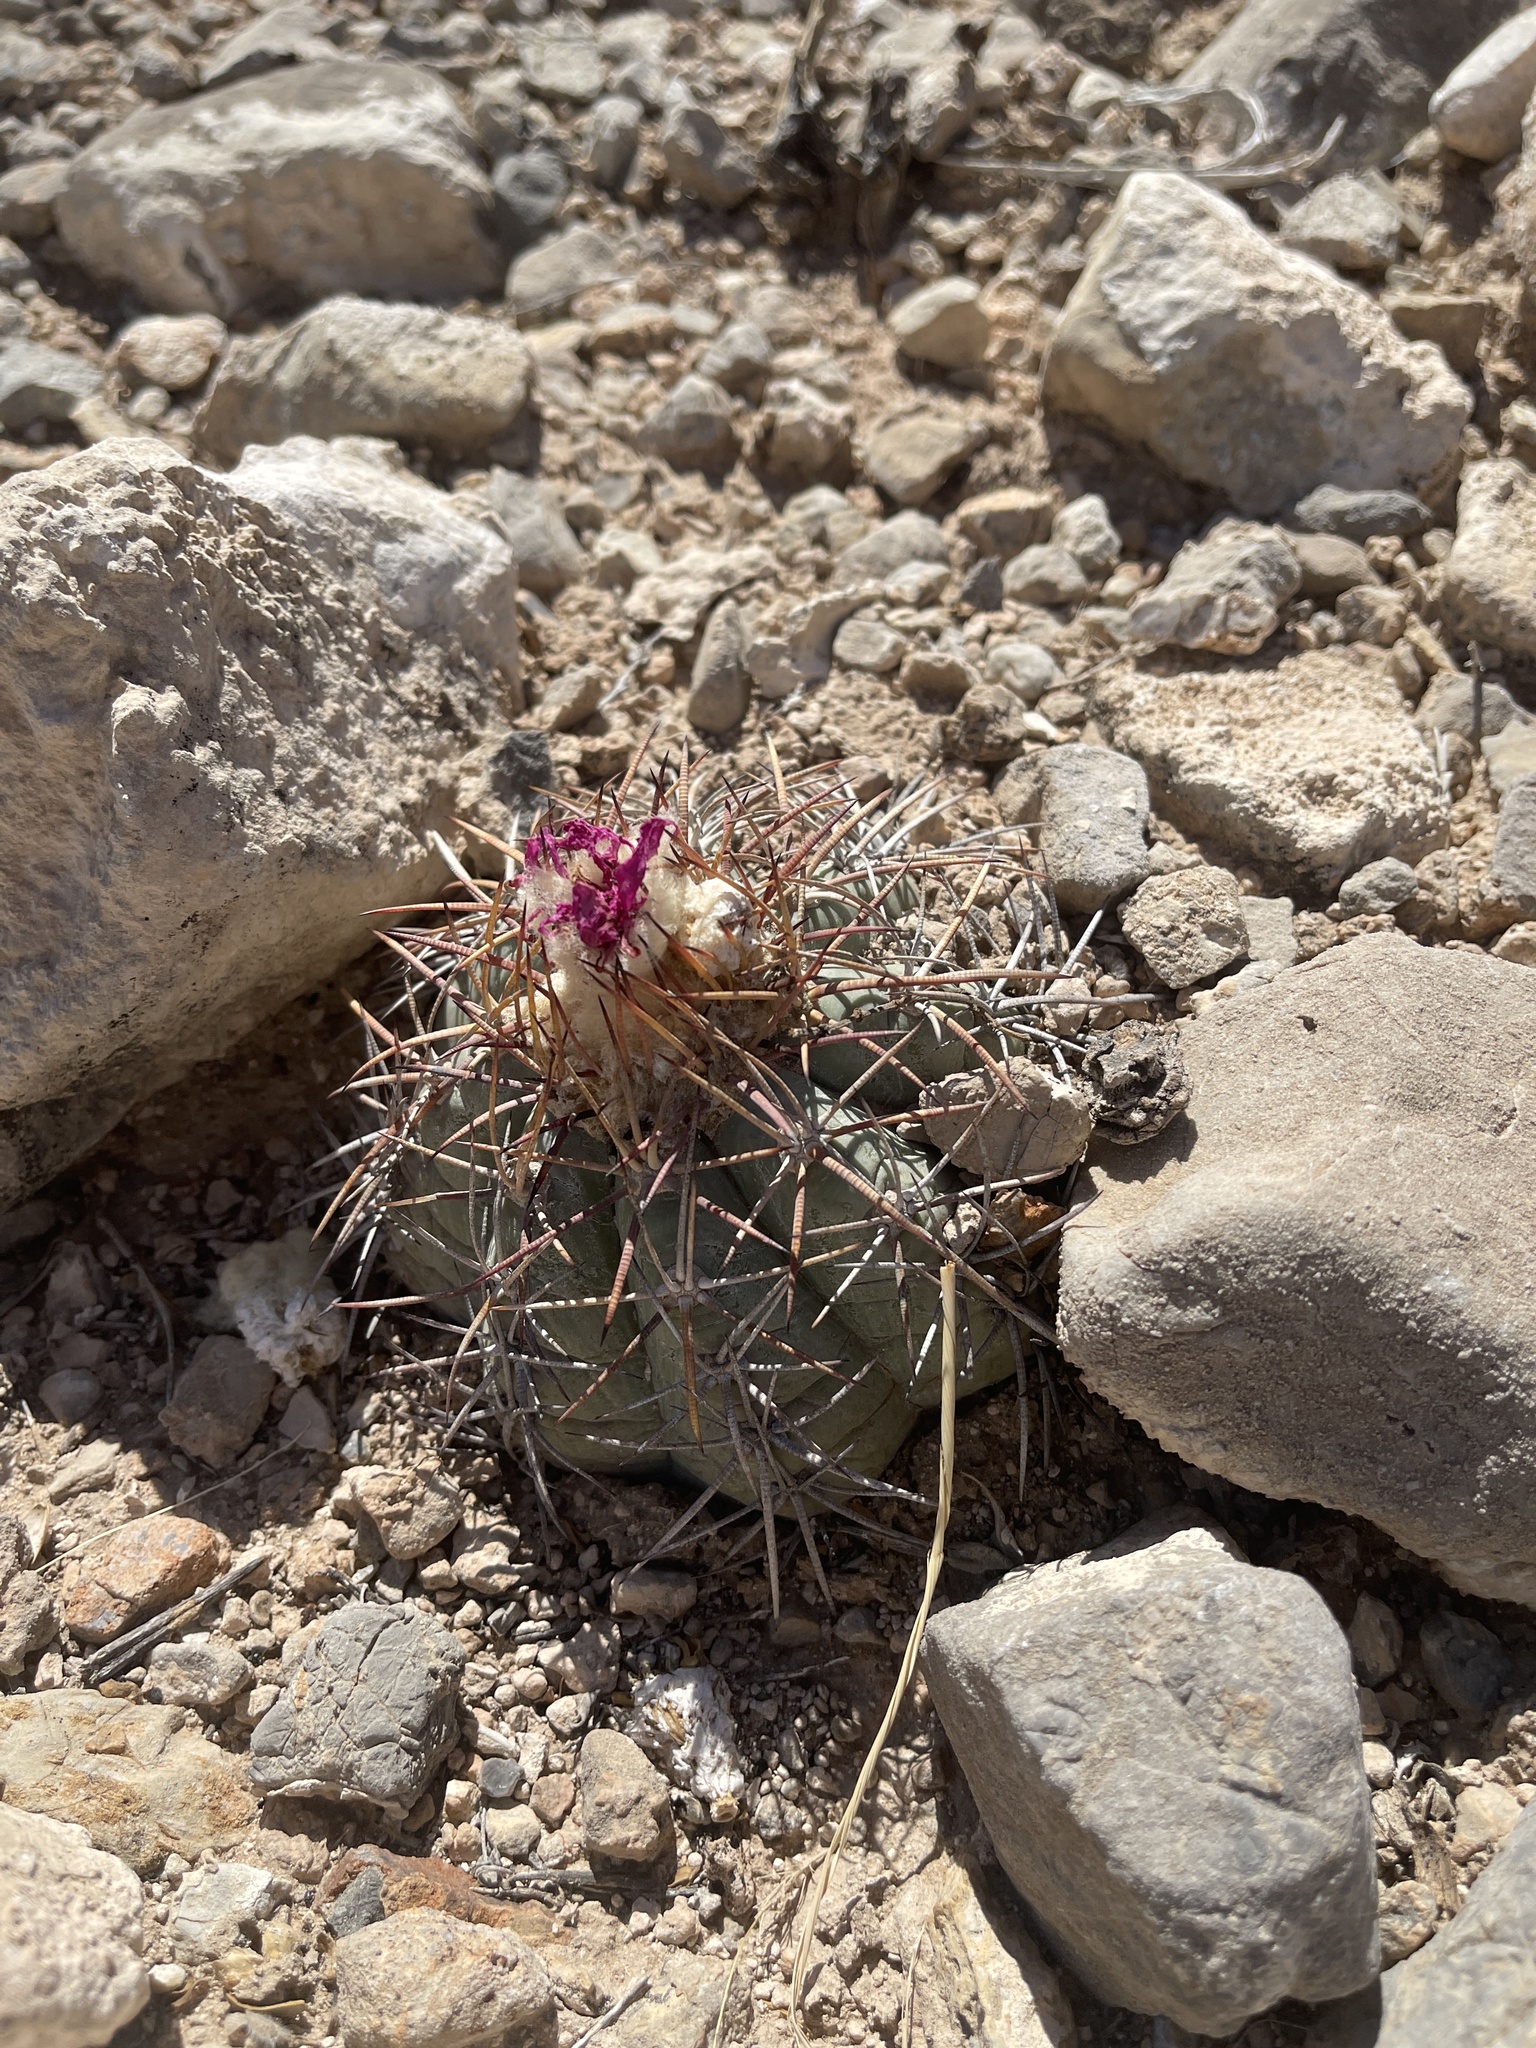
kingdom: Plantae
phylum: Tracheophyta
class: Magnoliopsida
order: Caryophyllales
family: Cactaceae
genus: Echinocactus
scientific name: Echinocactus horizonthalonius
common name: Devilshead
